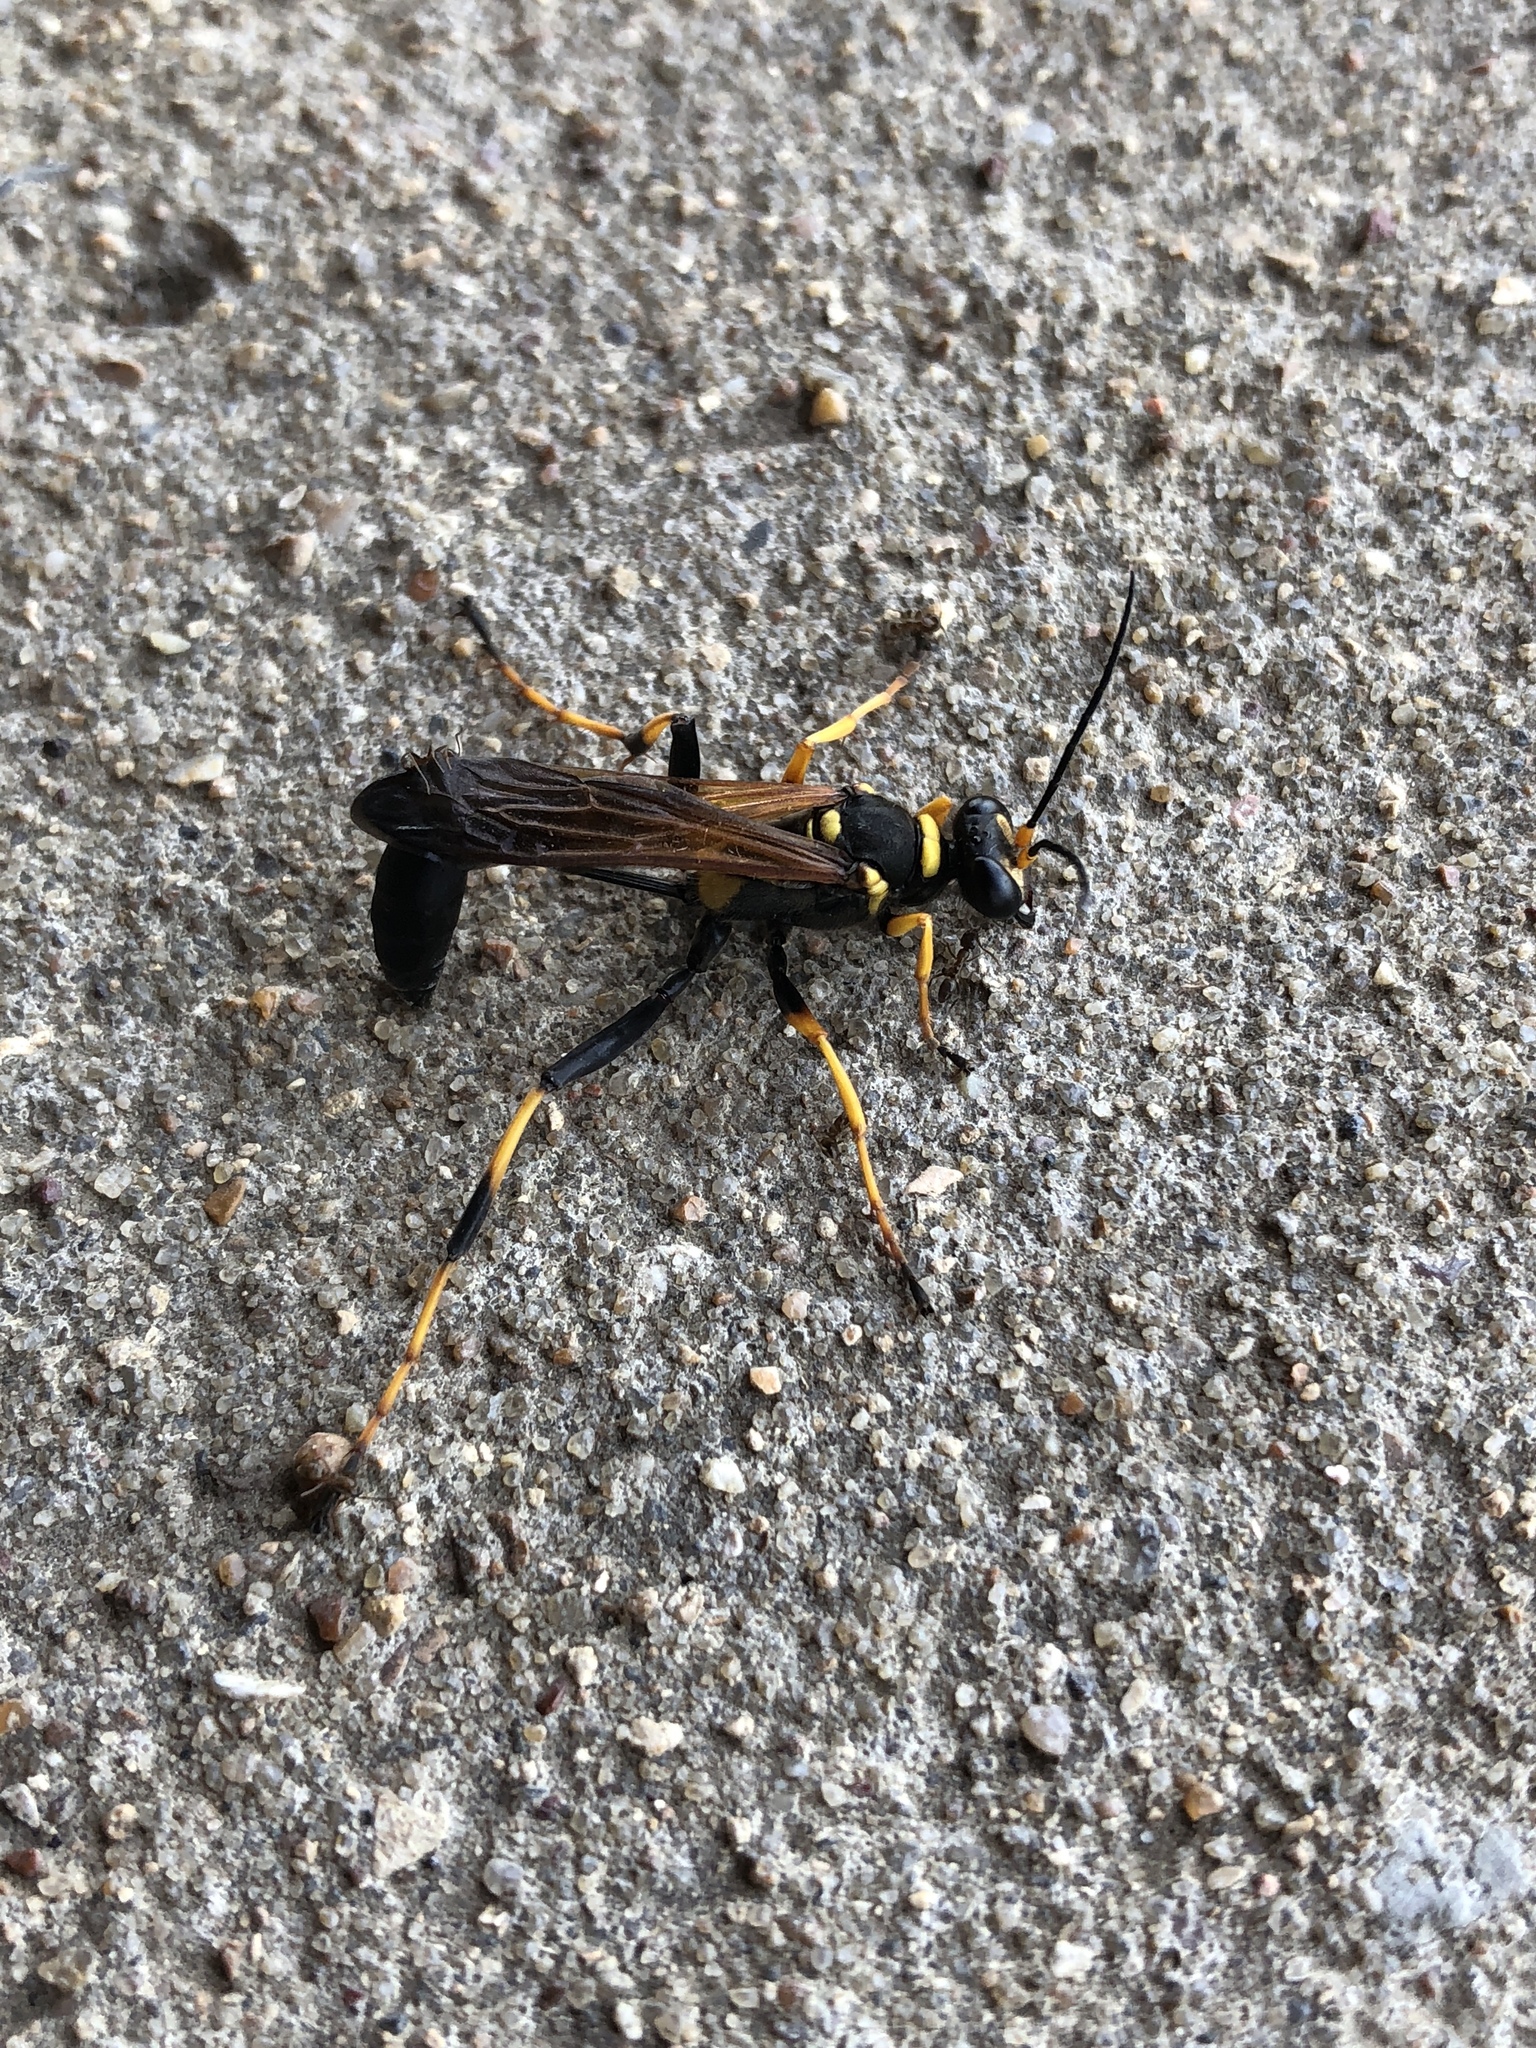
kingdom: Animalia
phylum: Arthropoda
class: Insecta
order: Hymenoptera
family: Sphecidae
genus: Sceliphron
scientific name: Sceliphron caementarium
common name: Mud dauber
